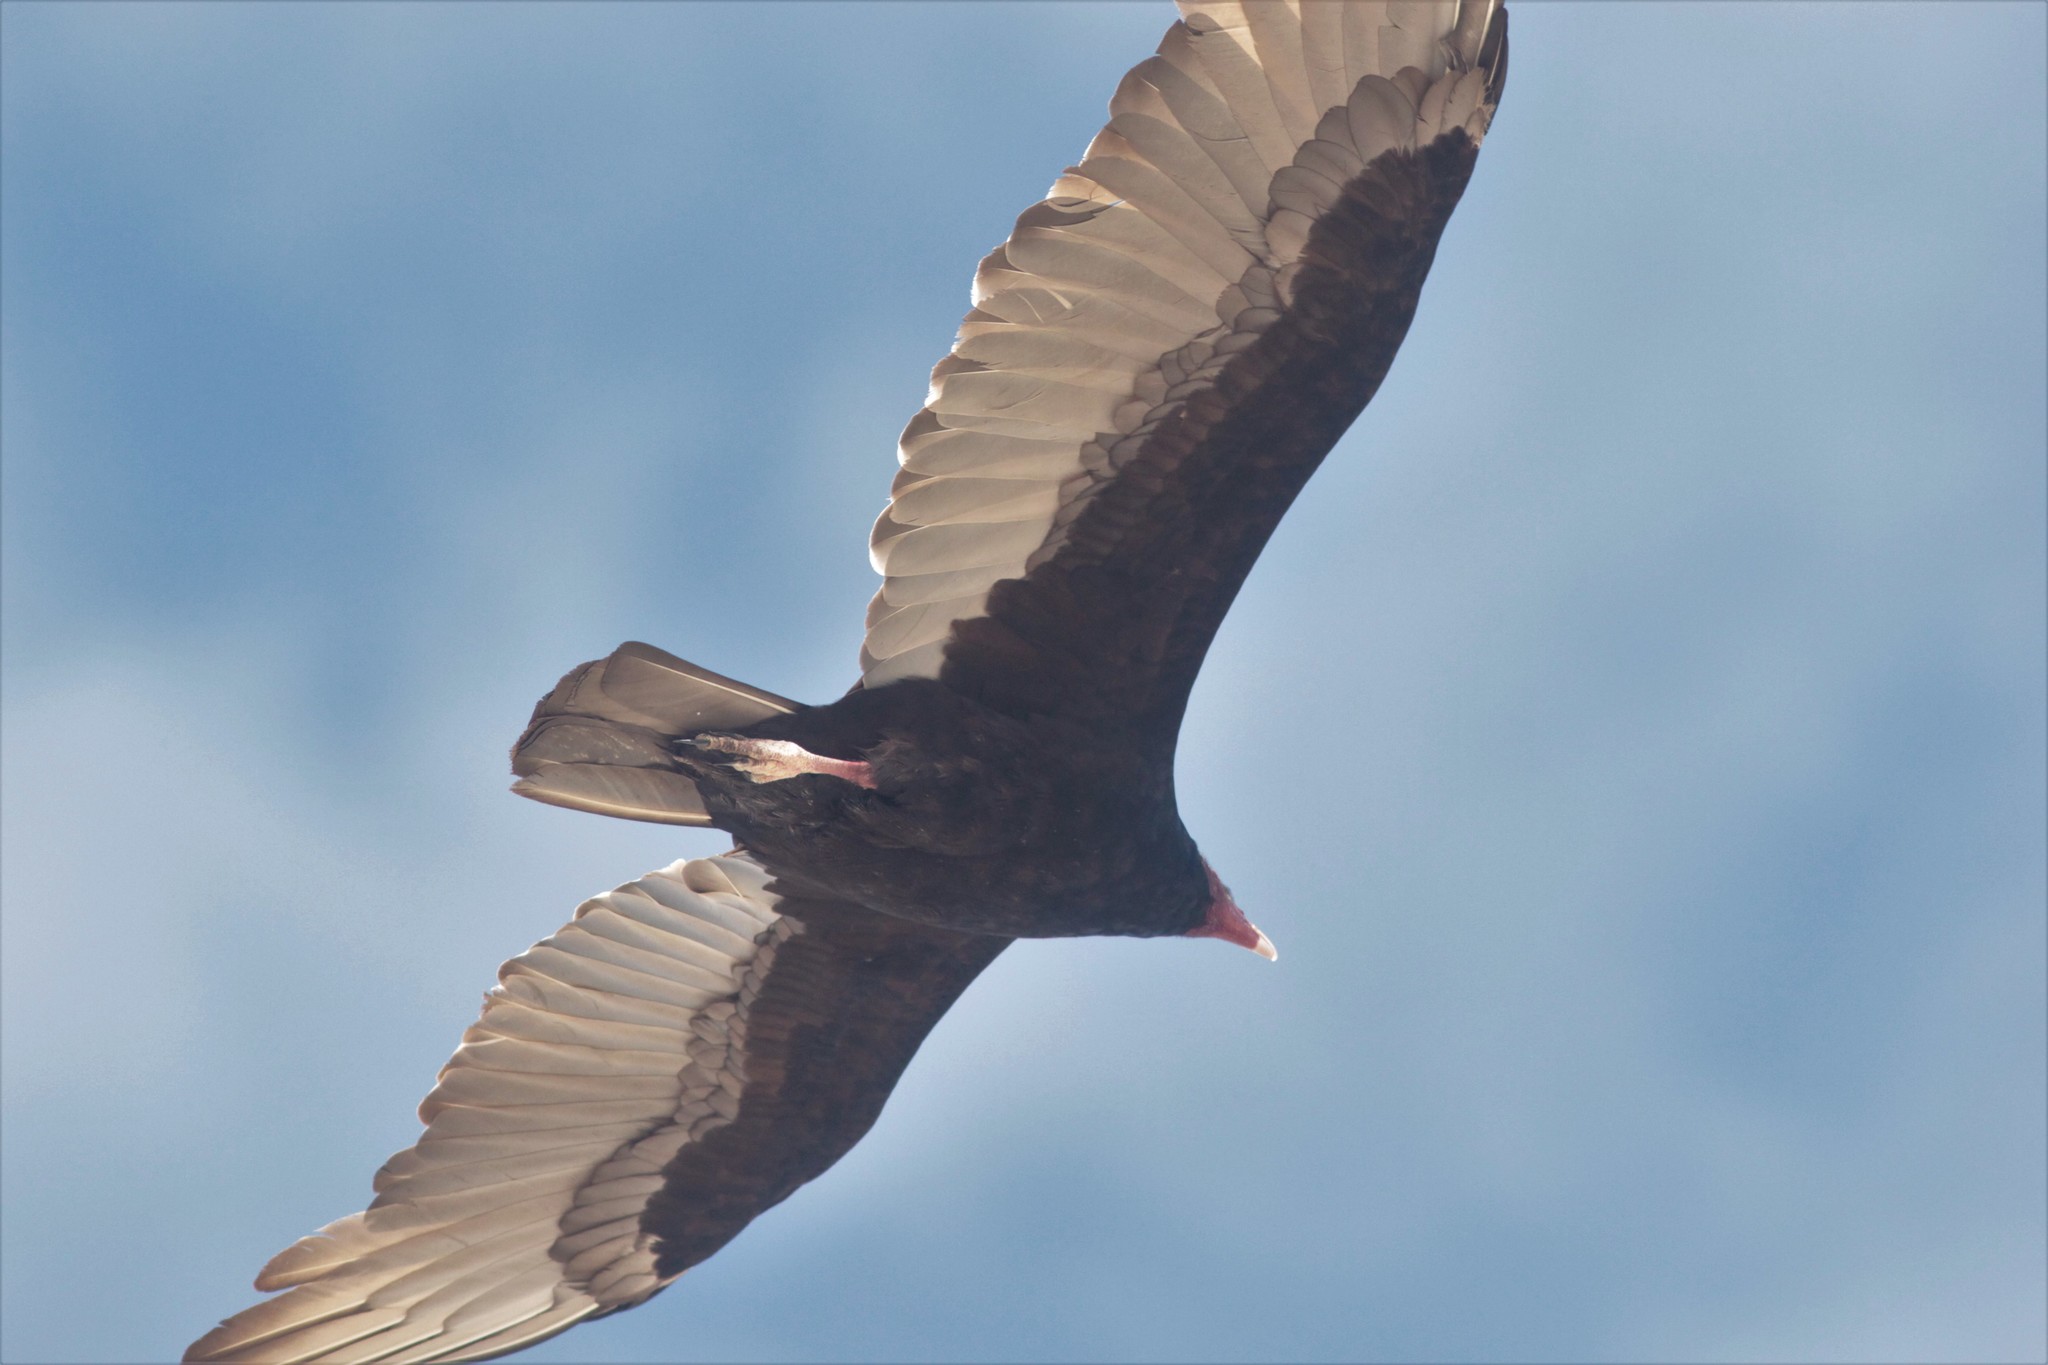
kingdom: Animalia
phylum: Chordata
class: Aves
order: Accipitriformes
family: Cathartidae
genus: Cathartes
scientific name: Cathartes aura
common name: Turkey vulture
